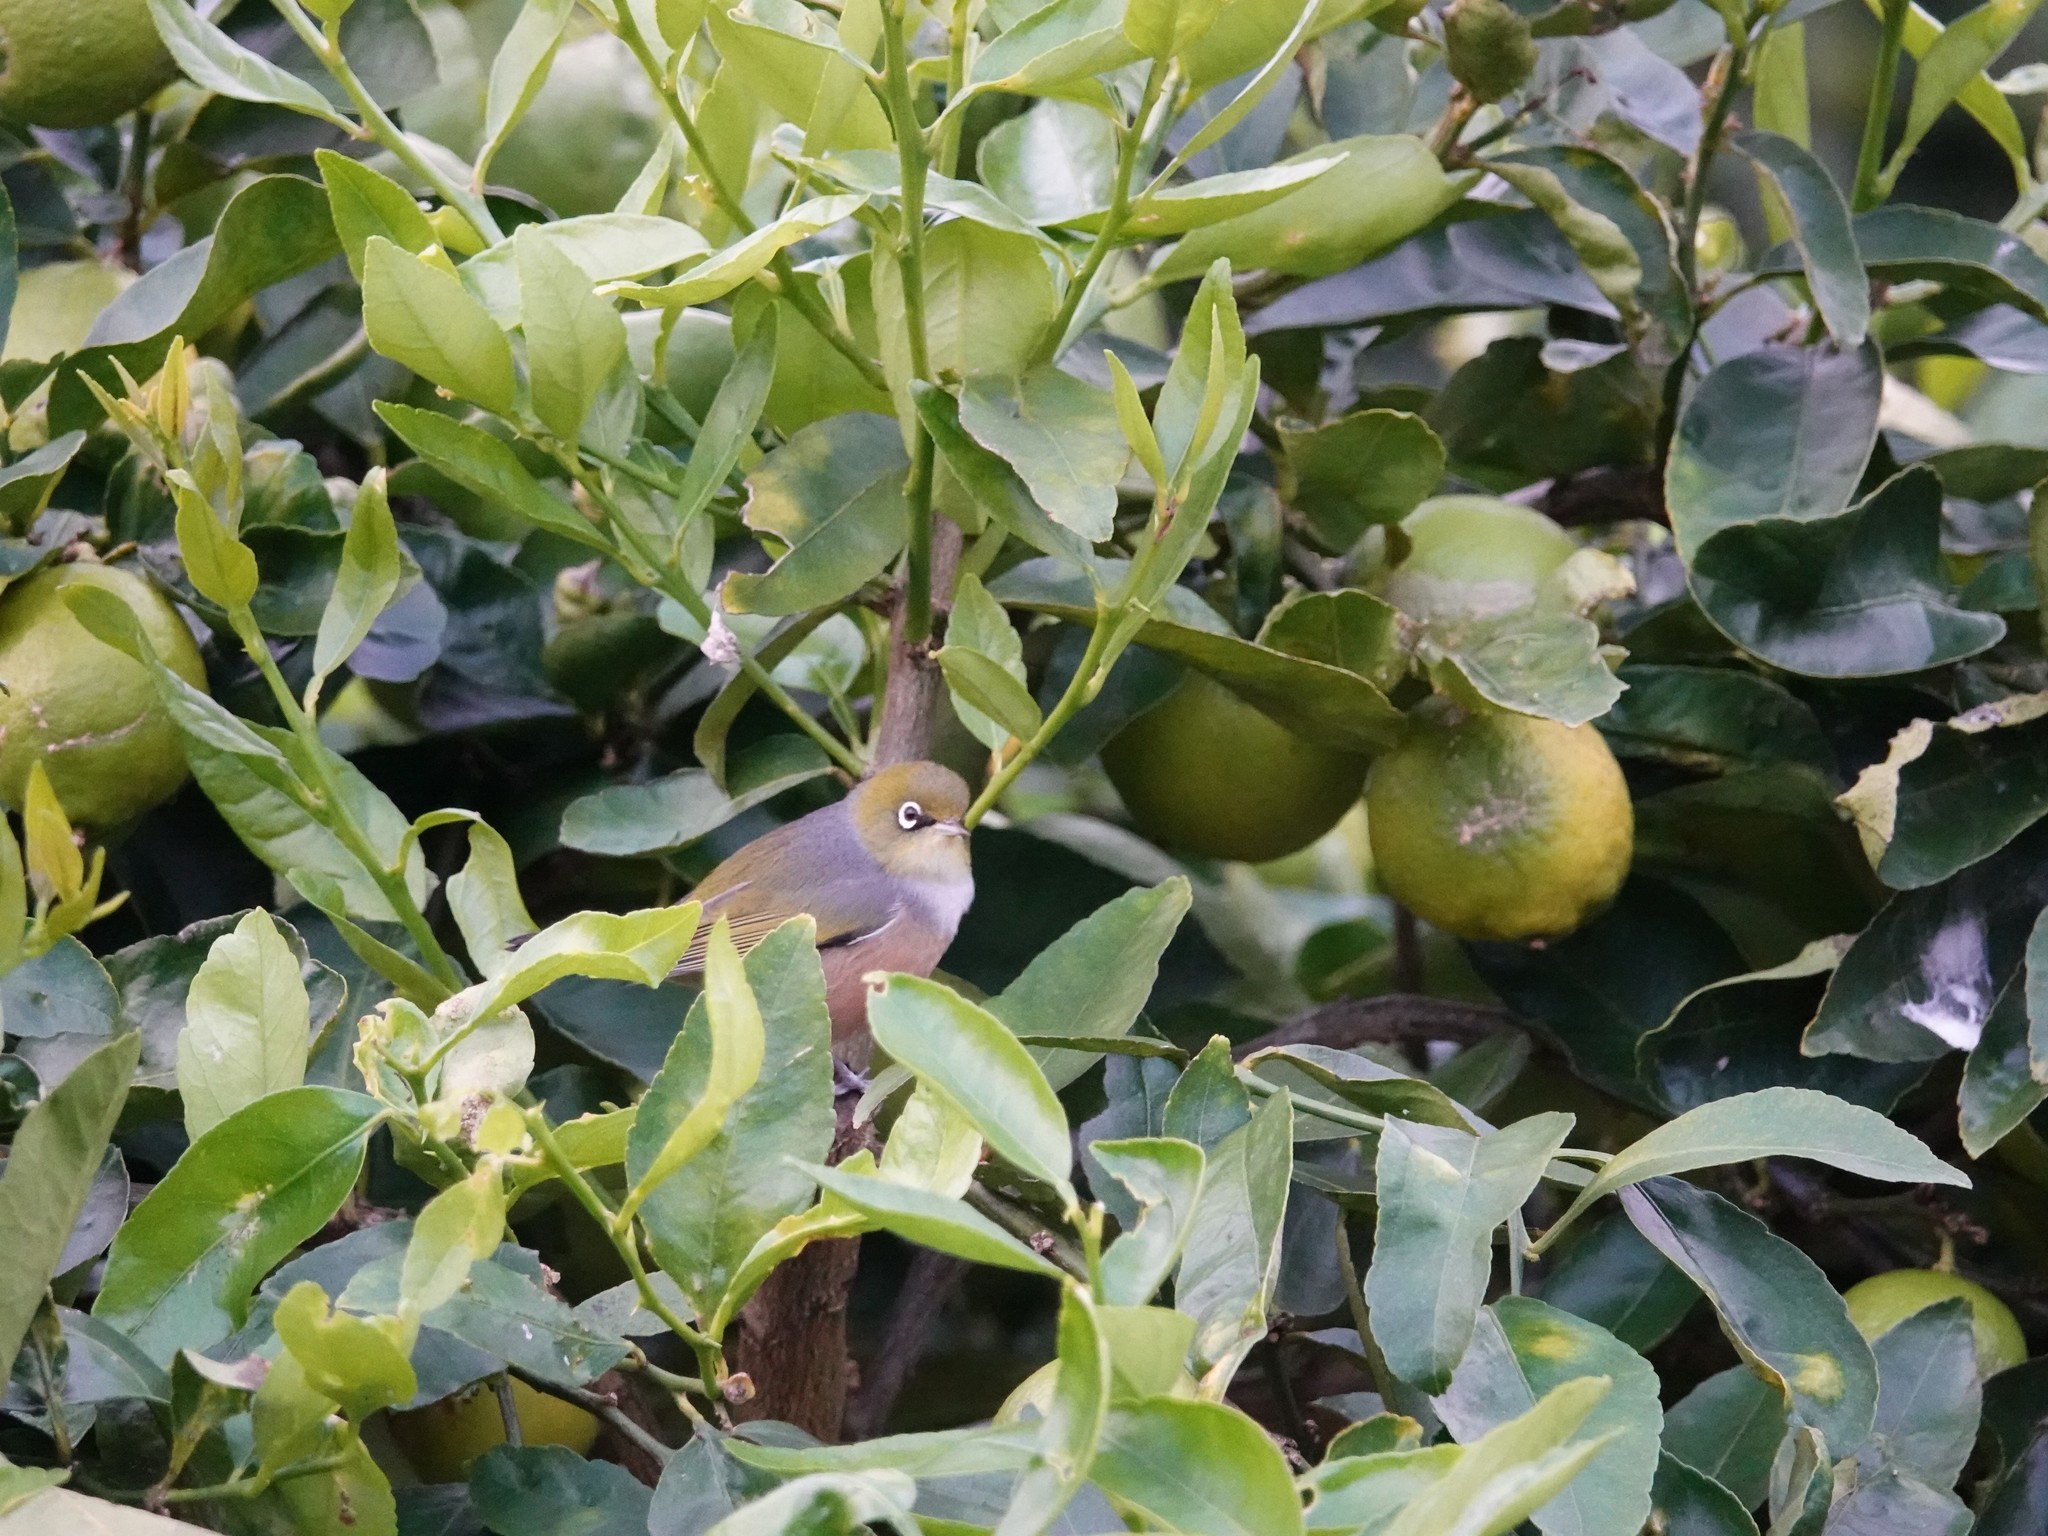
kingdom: Animalia
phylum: Chordata
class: Aves
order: Passeriformes
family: Zosteropidae
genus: Zosterops
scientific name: Zosterops lateralis
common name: Silvereye
